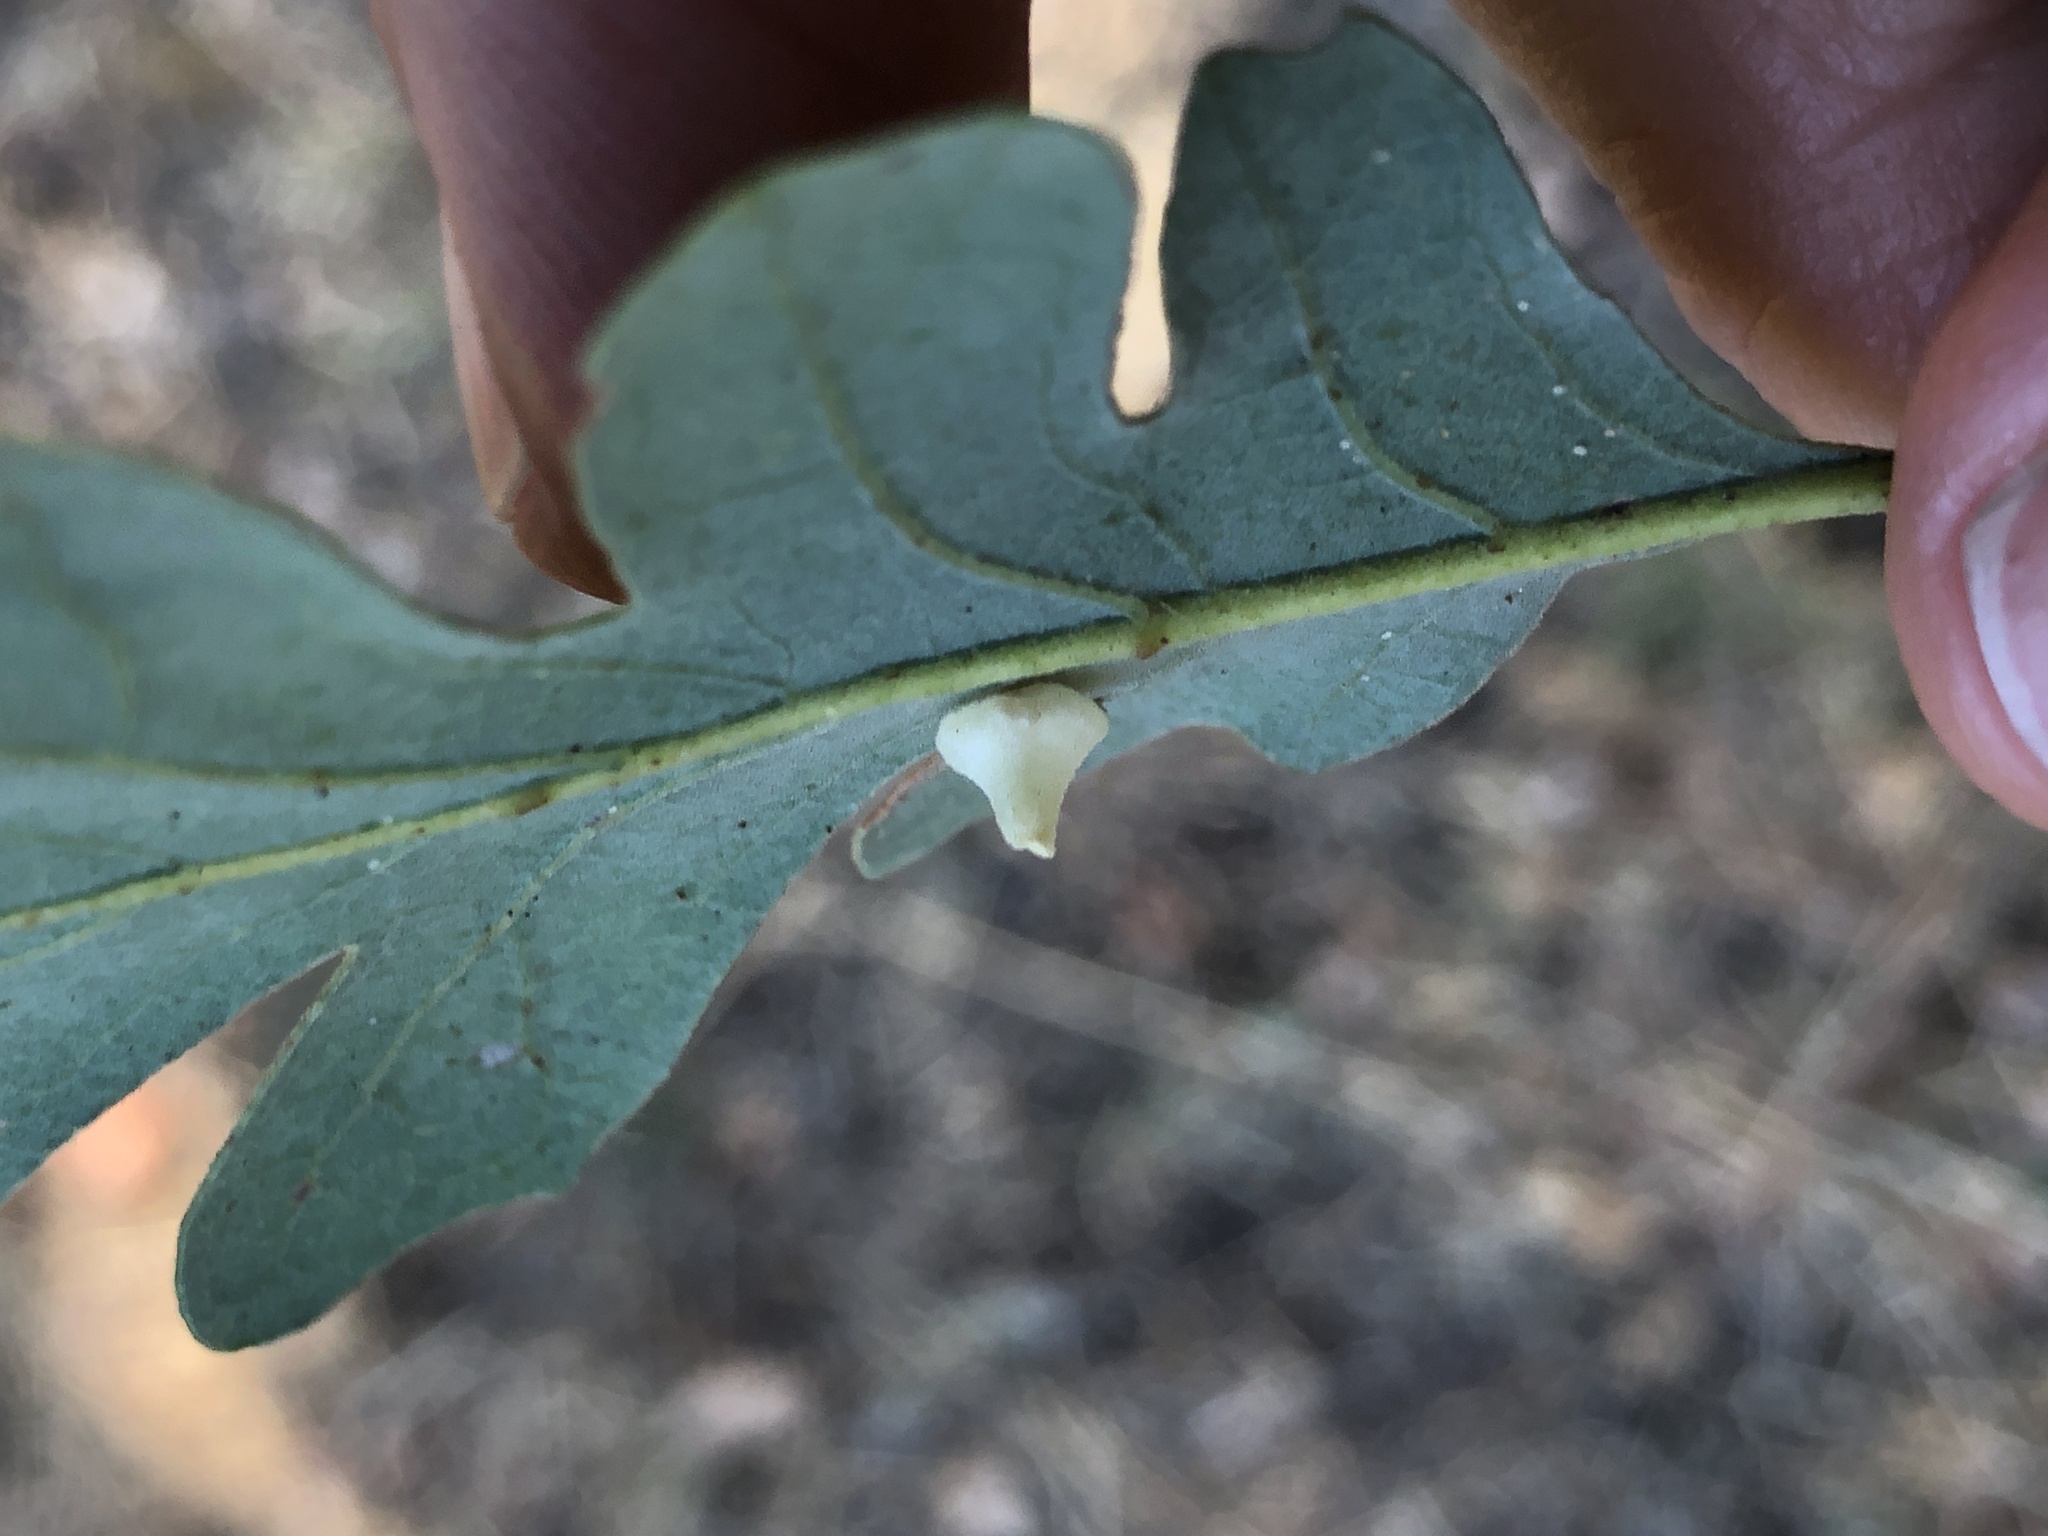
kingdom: Animalia
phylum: Arthropoda
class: Insecta
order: Hymenoptera
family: Cynipidae
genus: Andricus
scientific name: Andricus
